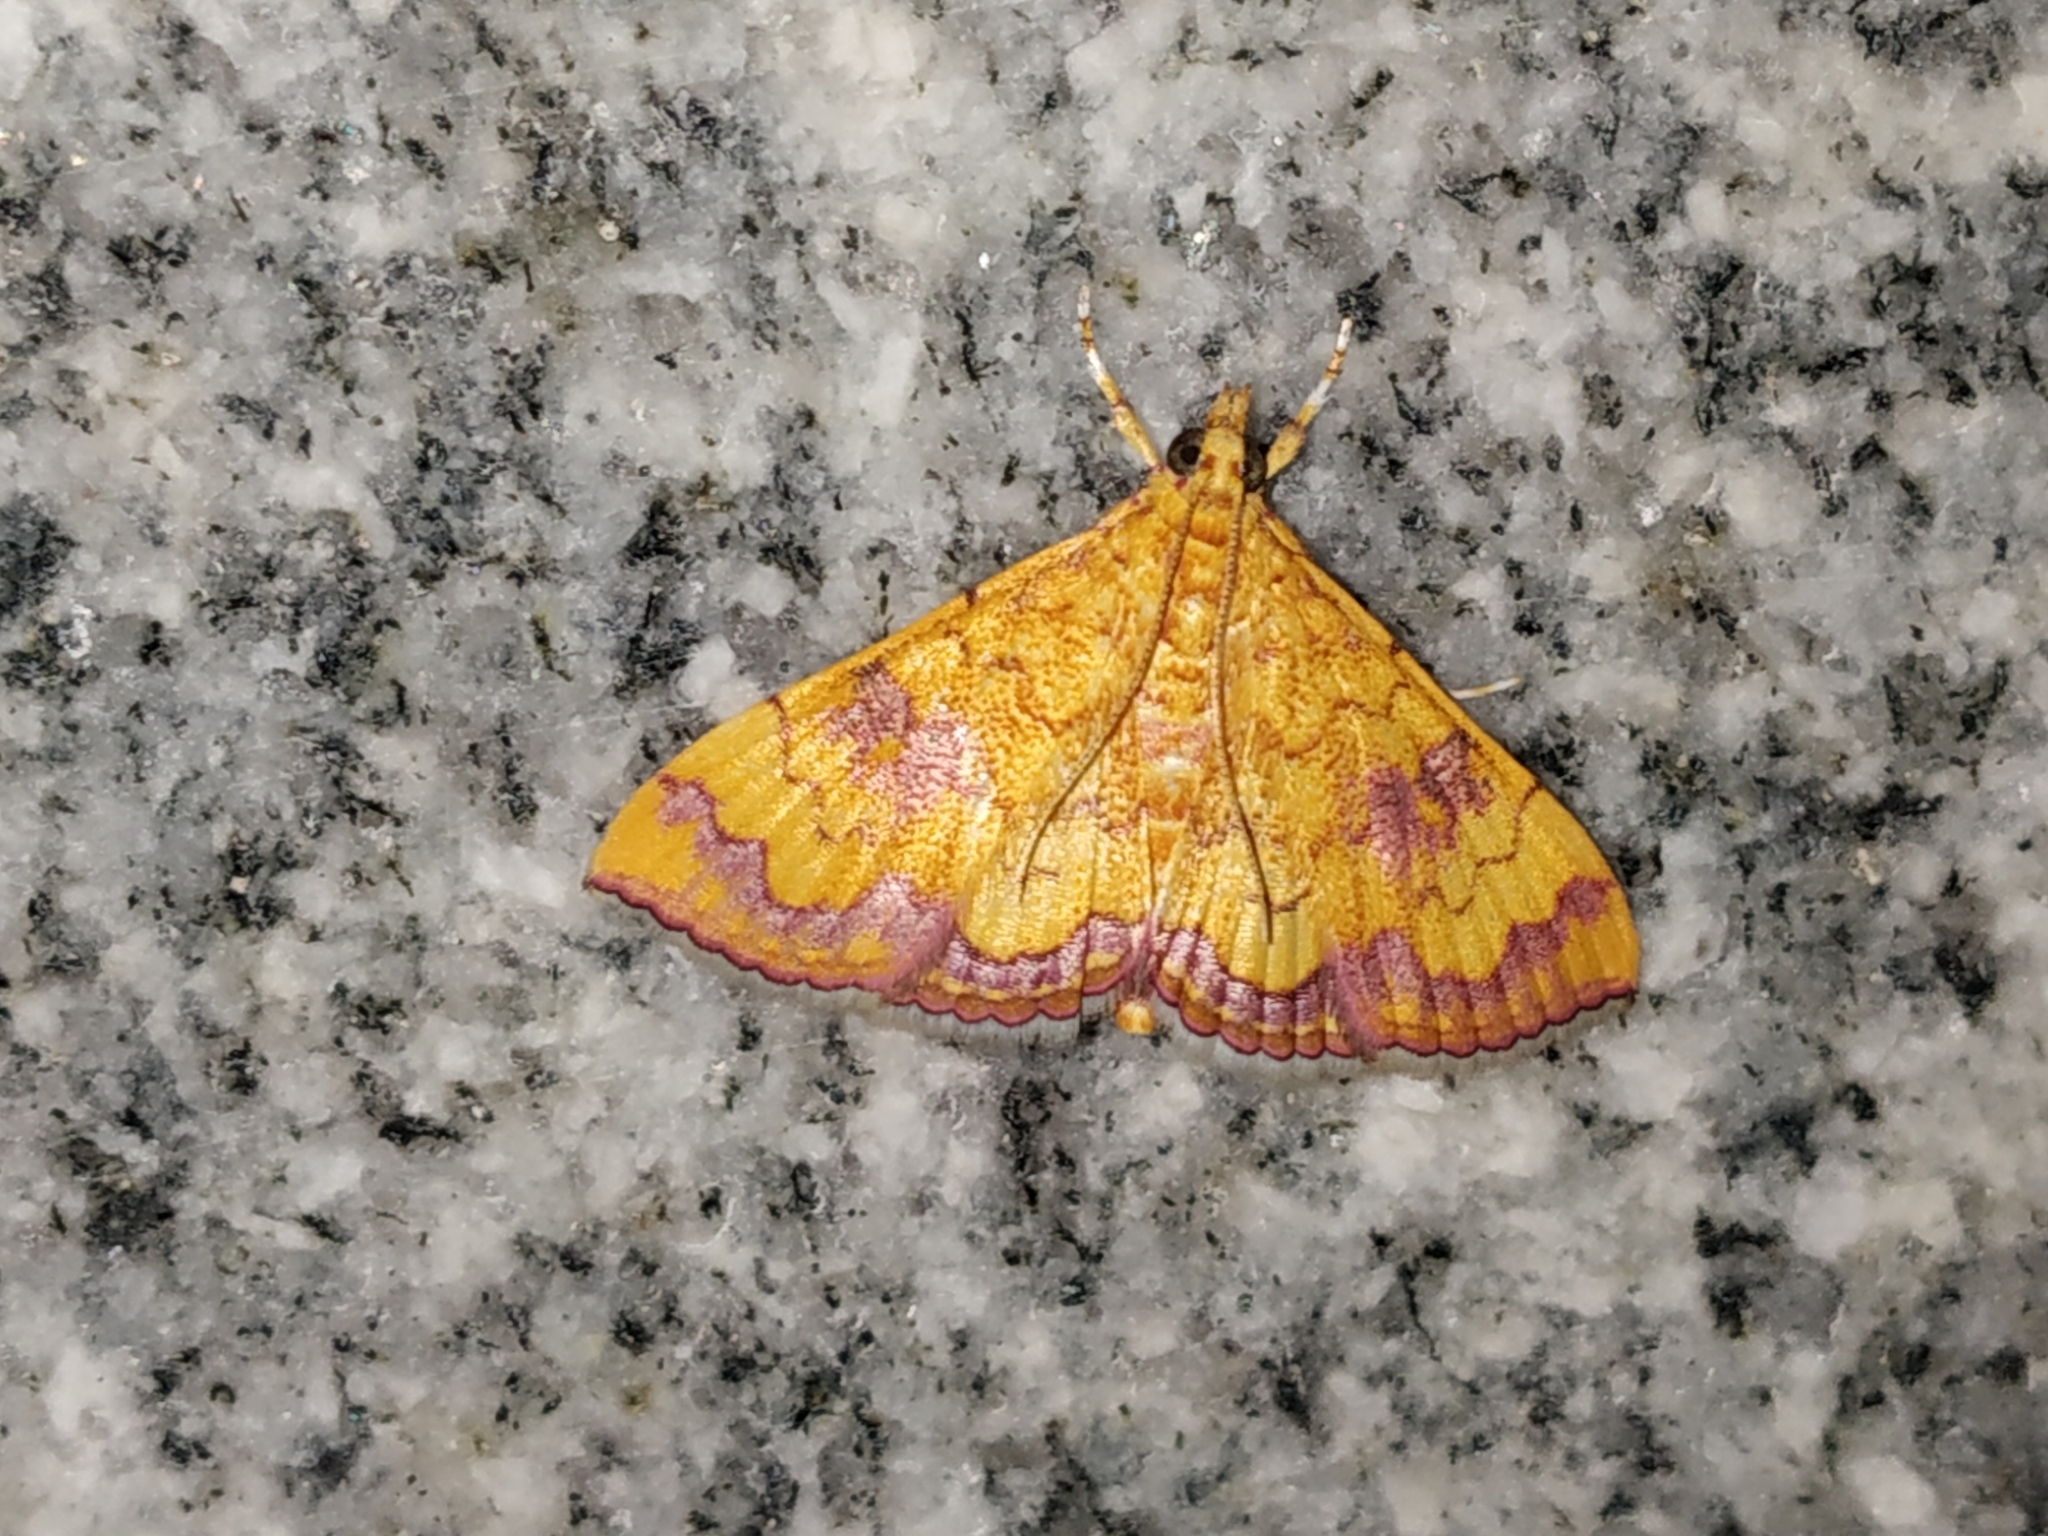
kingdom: Animalia
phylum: Arthropoda
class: Insecta
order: Lepidoptera
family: Crambidae
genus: Isocentris
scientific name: Isocentris filalis
